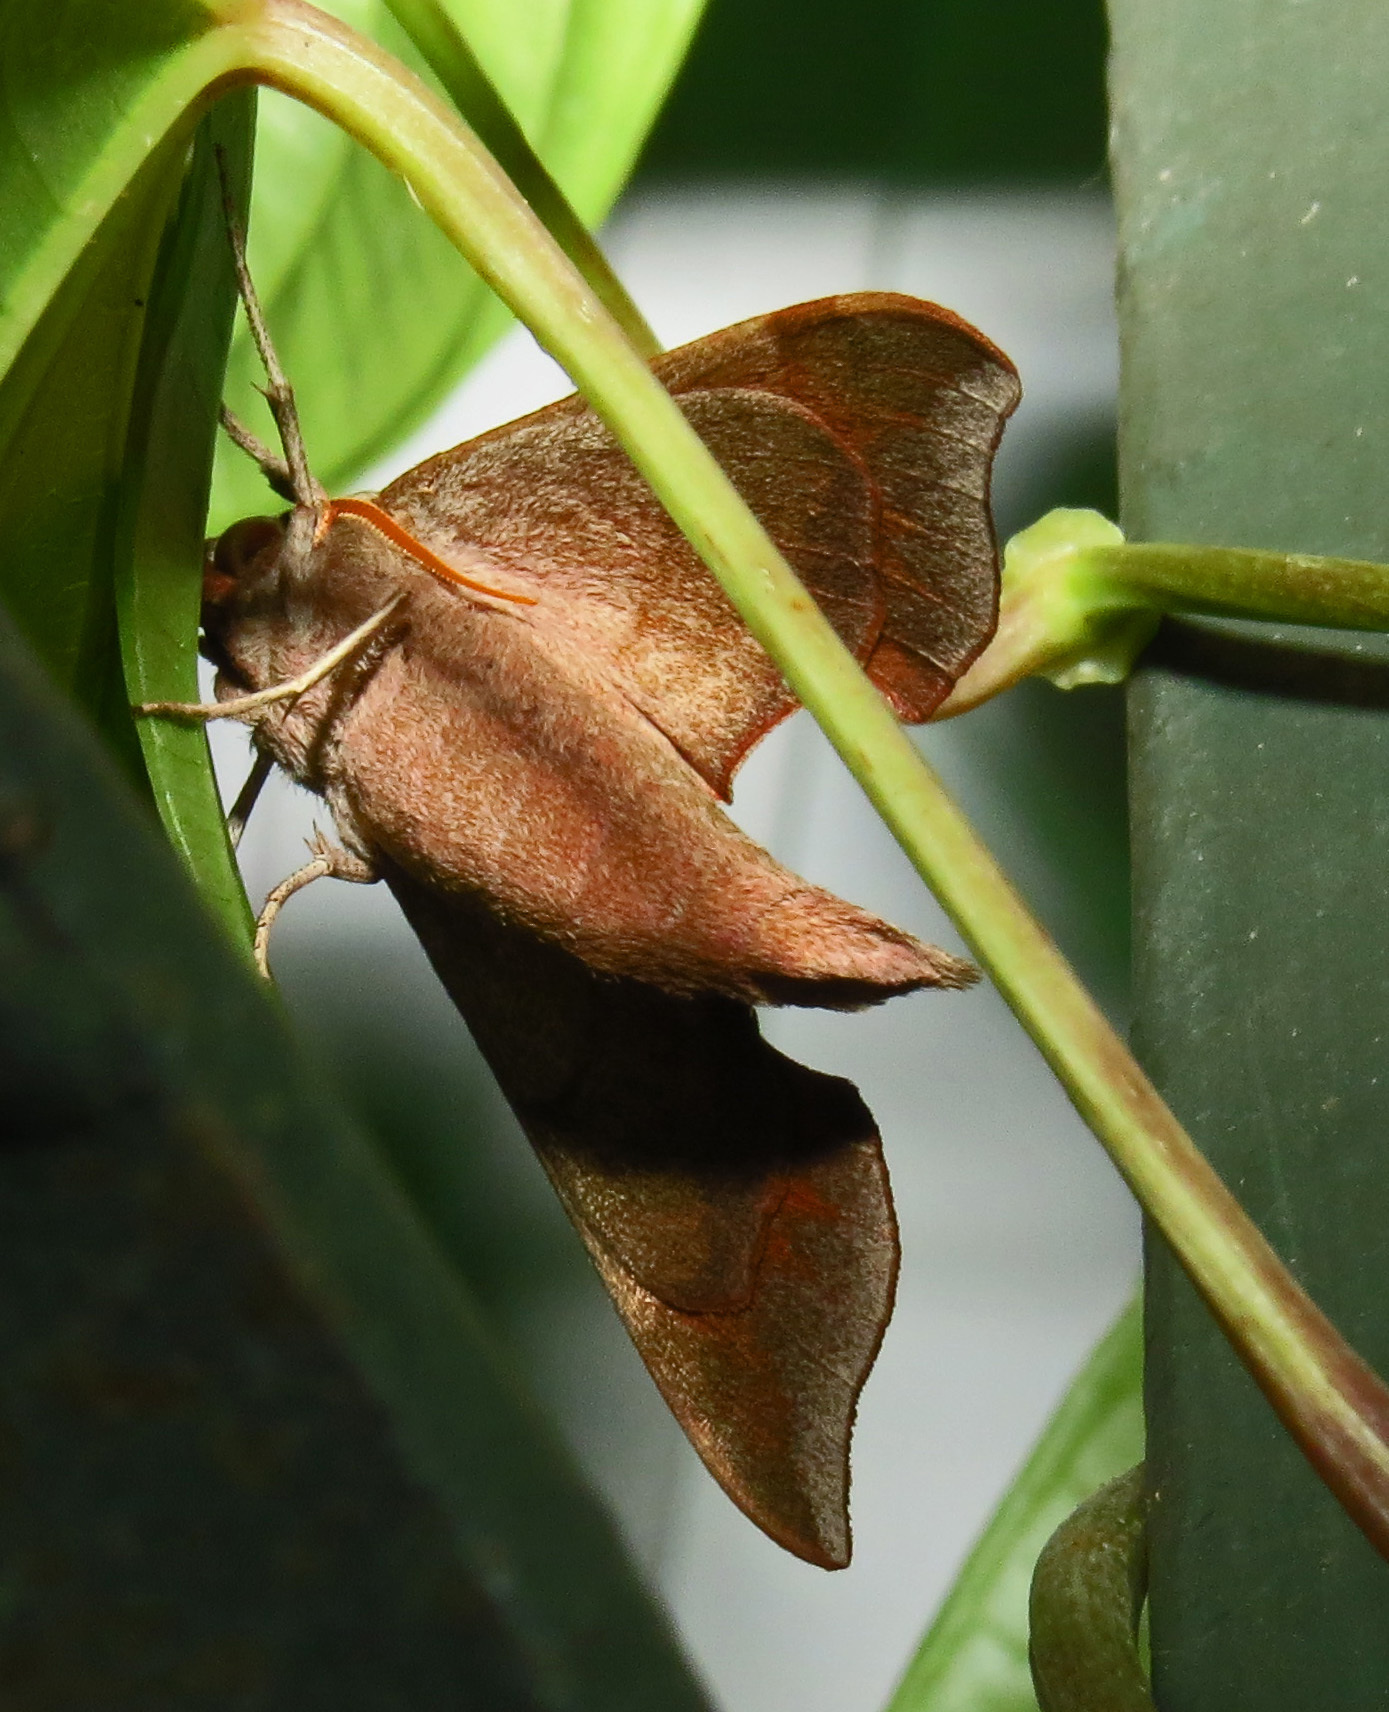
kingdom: Animalia
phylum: Arthropoda
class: Insecta
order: Lepidoptera
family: Sphingidae
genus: Darapsa
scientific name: Darapsa myron
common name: Hog sphinx
